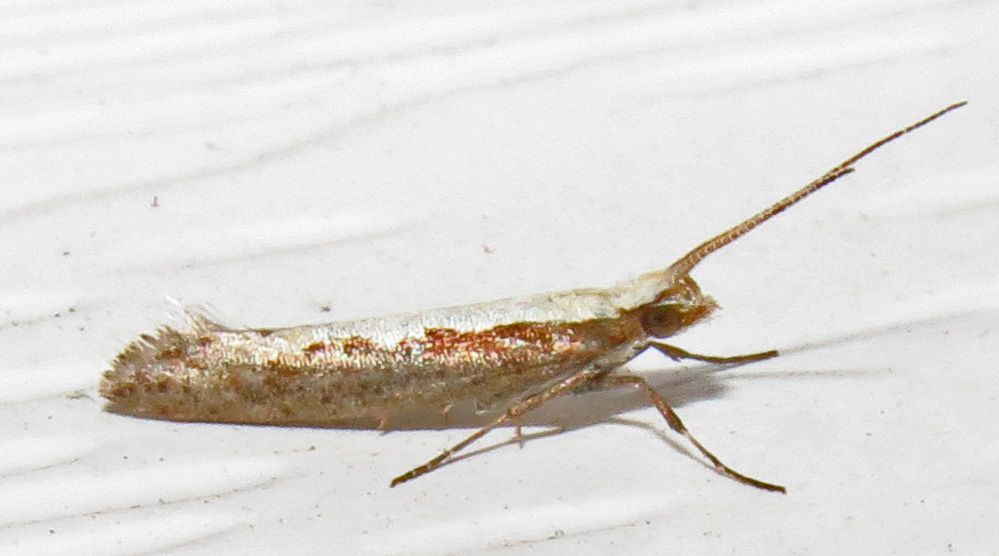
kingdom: Animalia
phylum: Arthropoda
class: Insecta
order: Lepidoptera
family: Plutellidae
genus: Plutella
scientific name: Plutella xylostella
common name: Diamond-back moth
